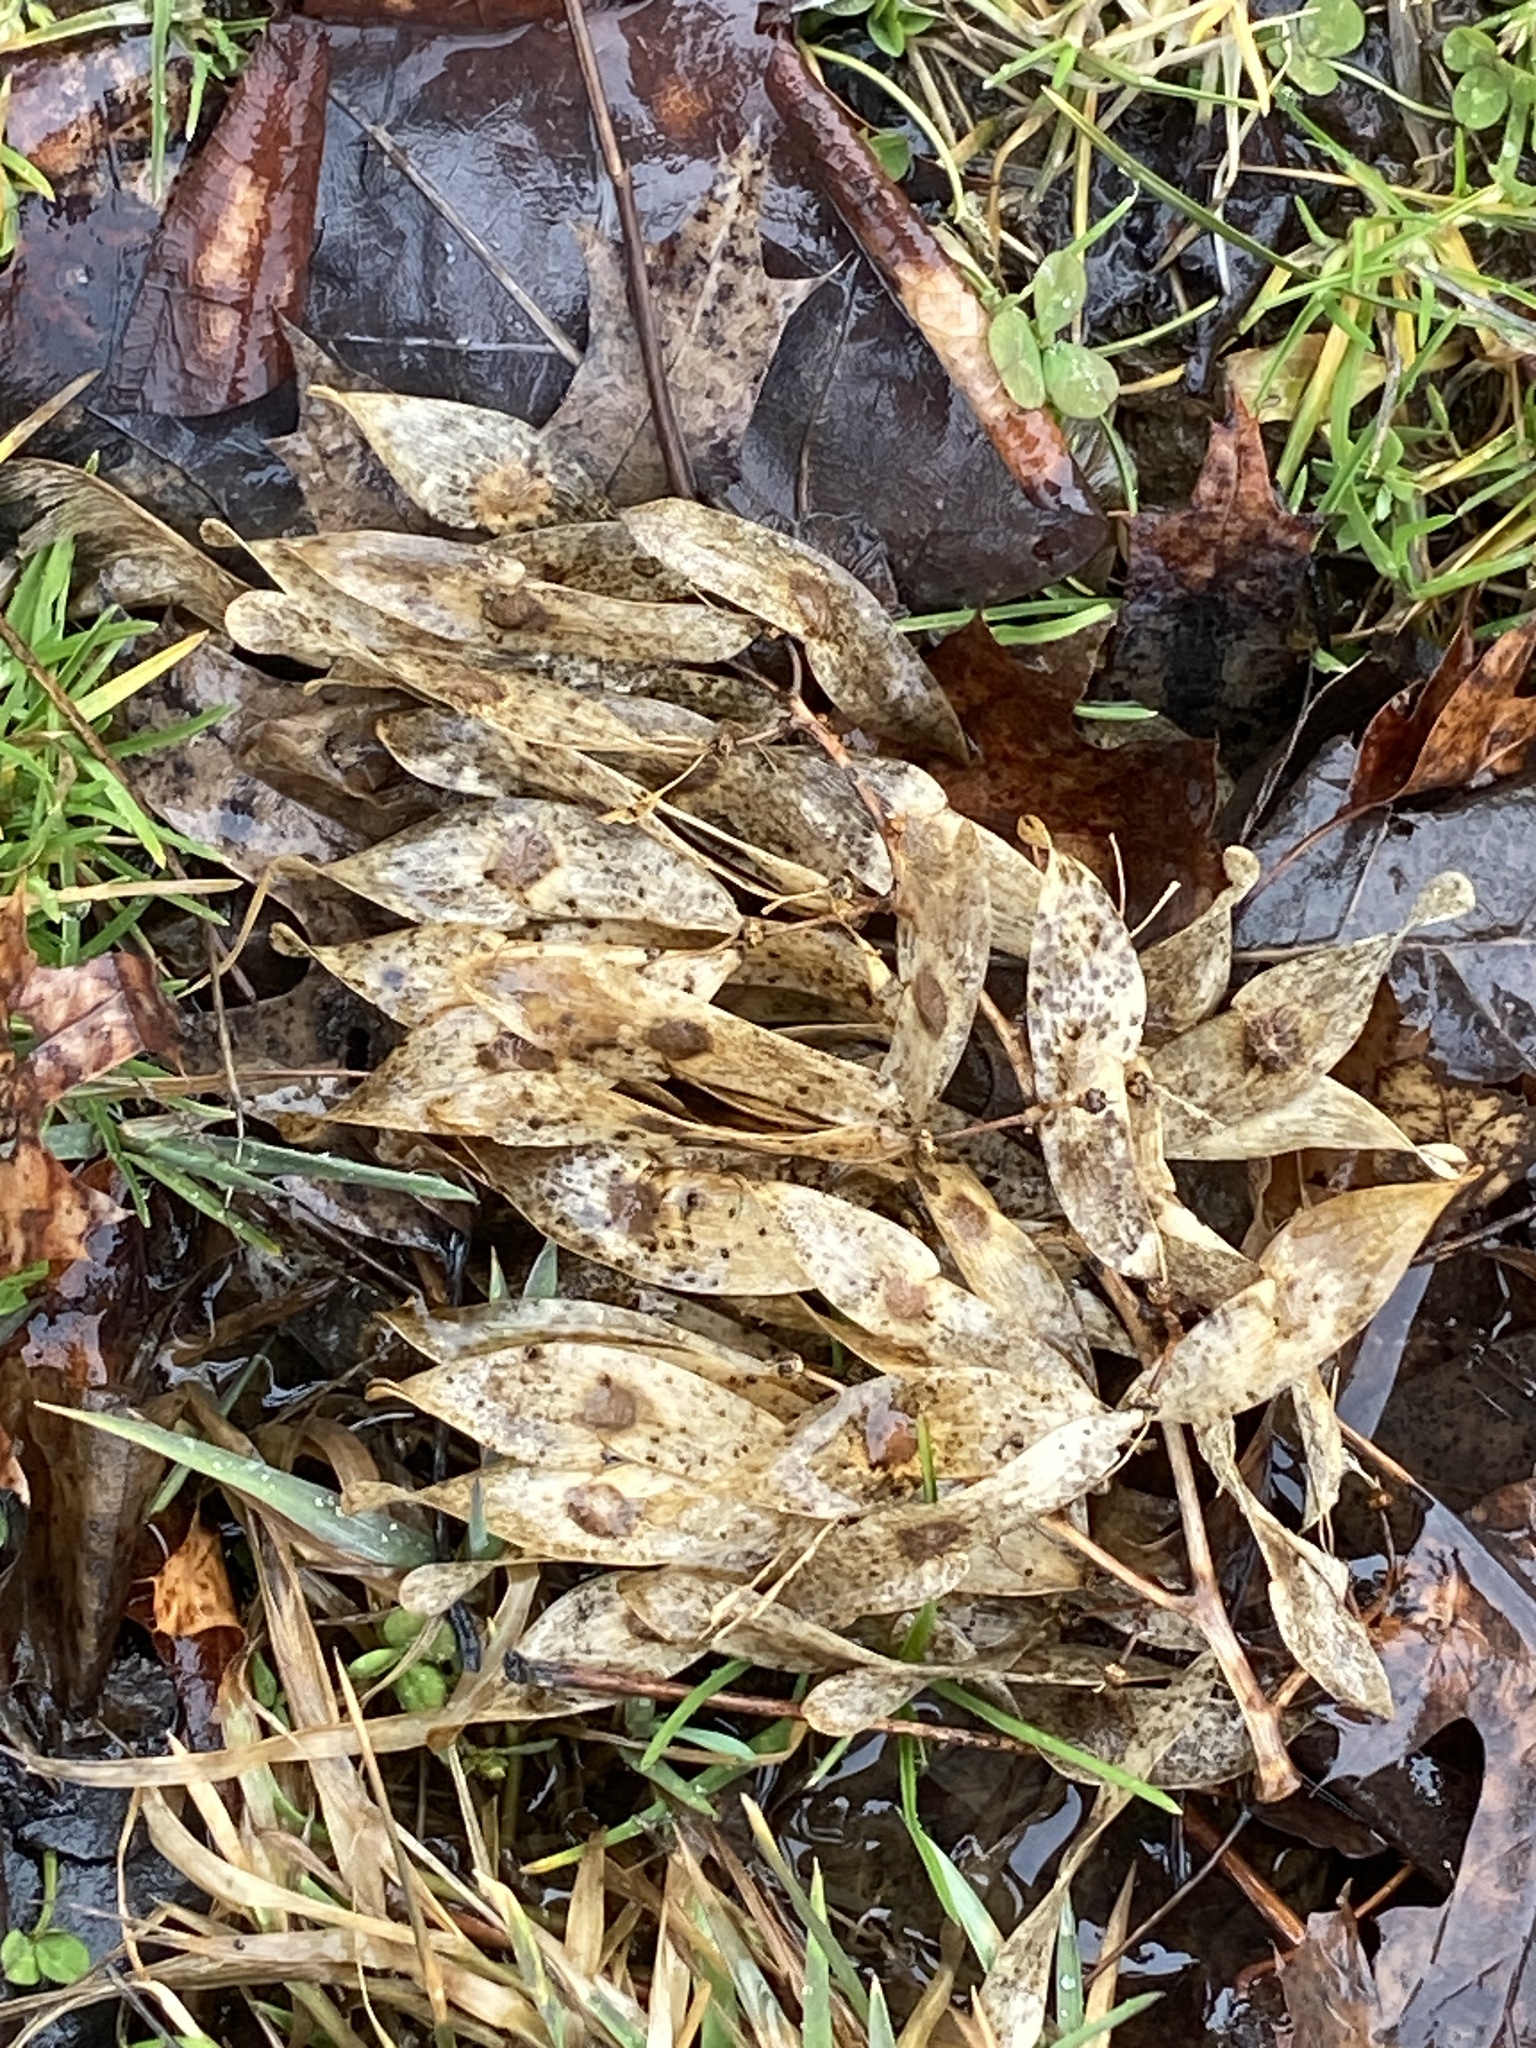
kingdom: Plantae
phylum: Tracheophyta
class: Magnoliopsida
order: Sapindales
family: Simaroubaceae
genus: Ailanthus
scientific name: Ailanthus altissima
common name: Tree-of-heaven
